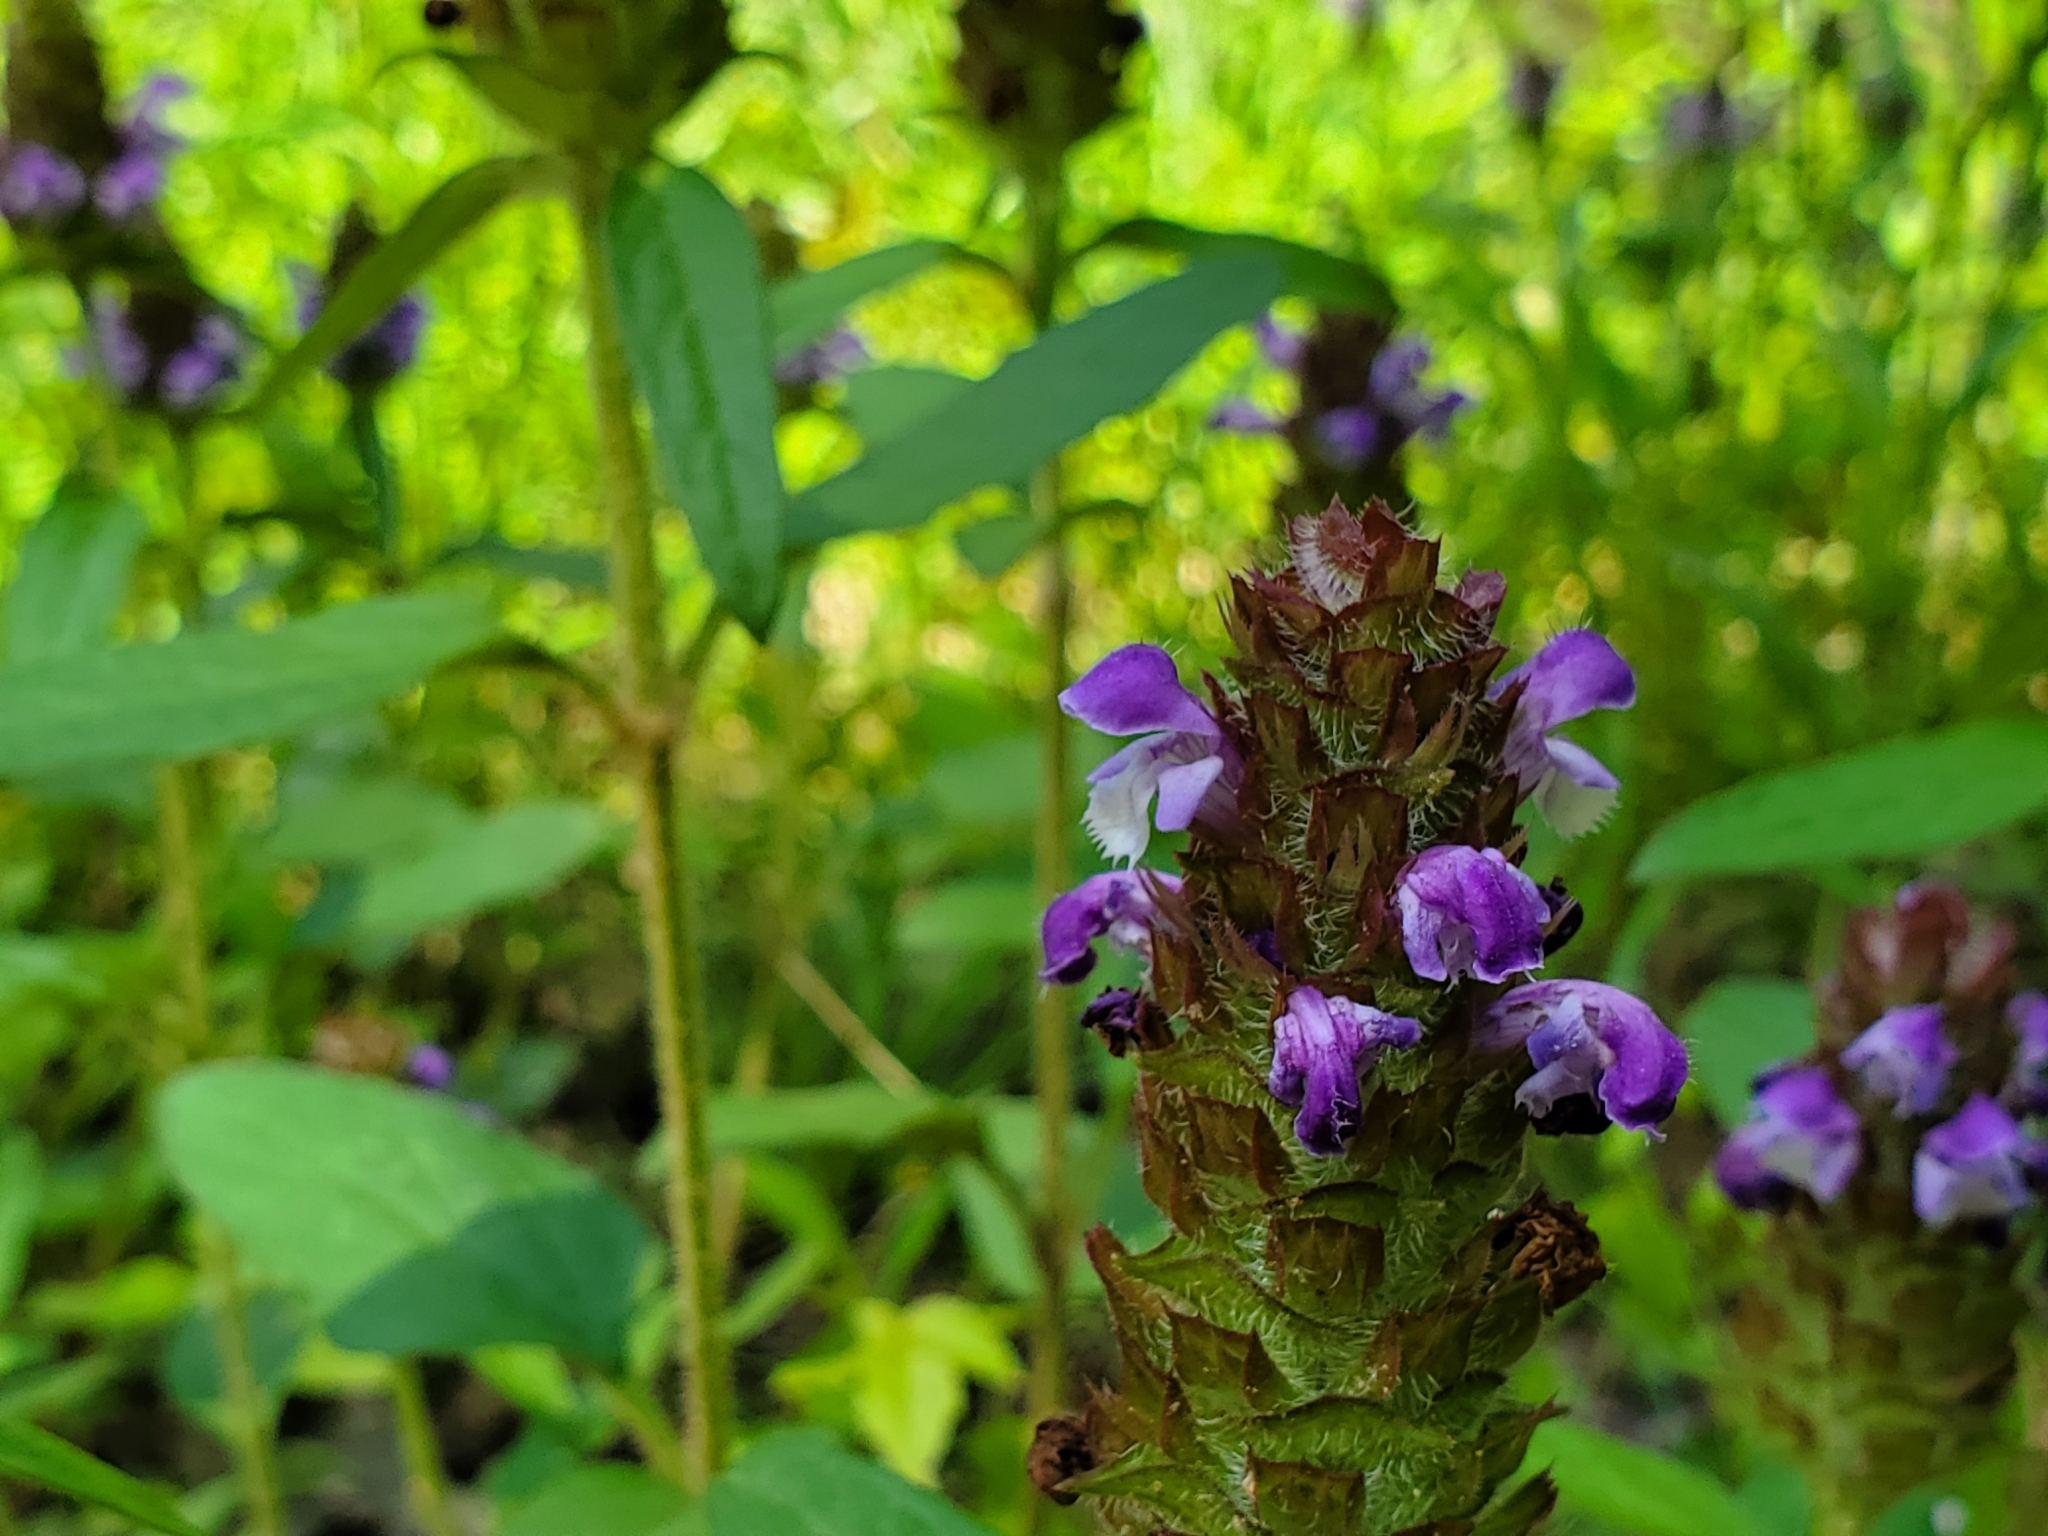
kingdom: Plantae
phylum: Tracheophyta
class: Magnoliopsida
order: Lamiales
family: Lamiaceae
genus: Prunella
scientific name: Prunella vulgaris
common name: Heal-all
